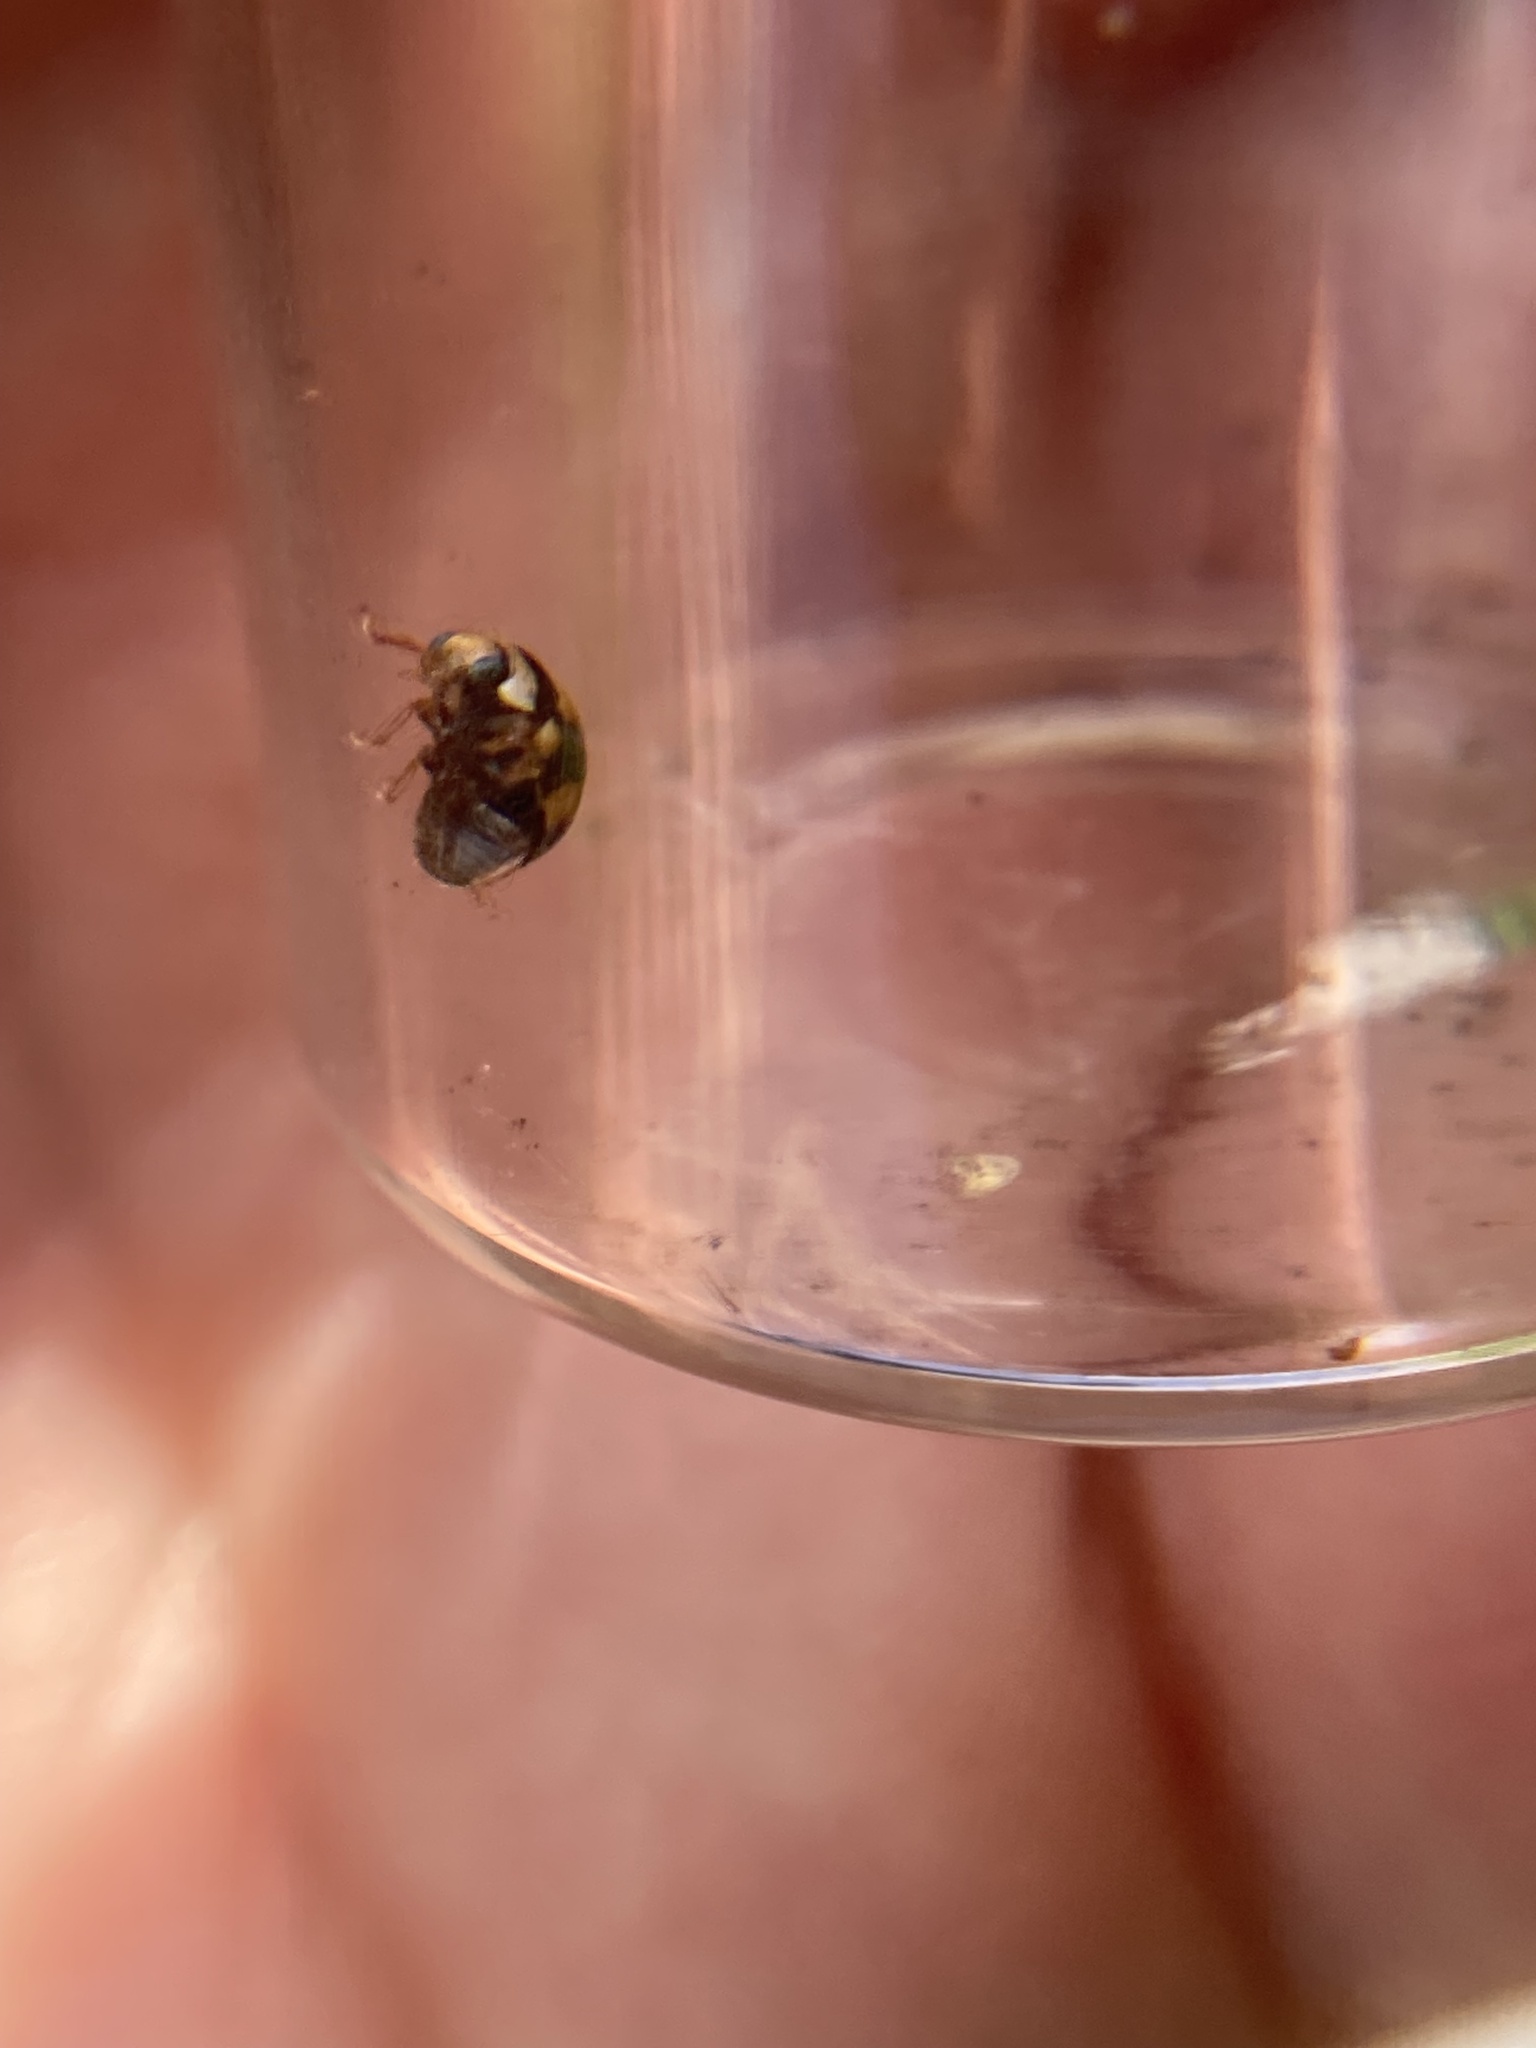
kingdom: Animalia
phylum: Arthropoda
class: Insecta
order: Coleoptera
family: Coccinellidae
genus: Brachiacantha
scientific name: Brachiacantha ursina
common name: Ursine spurleg lady beetle
